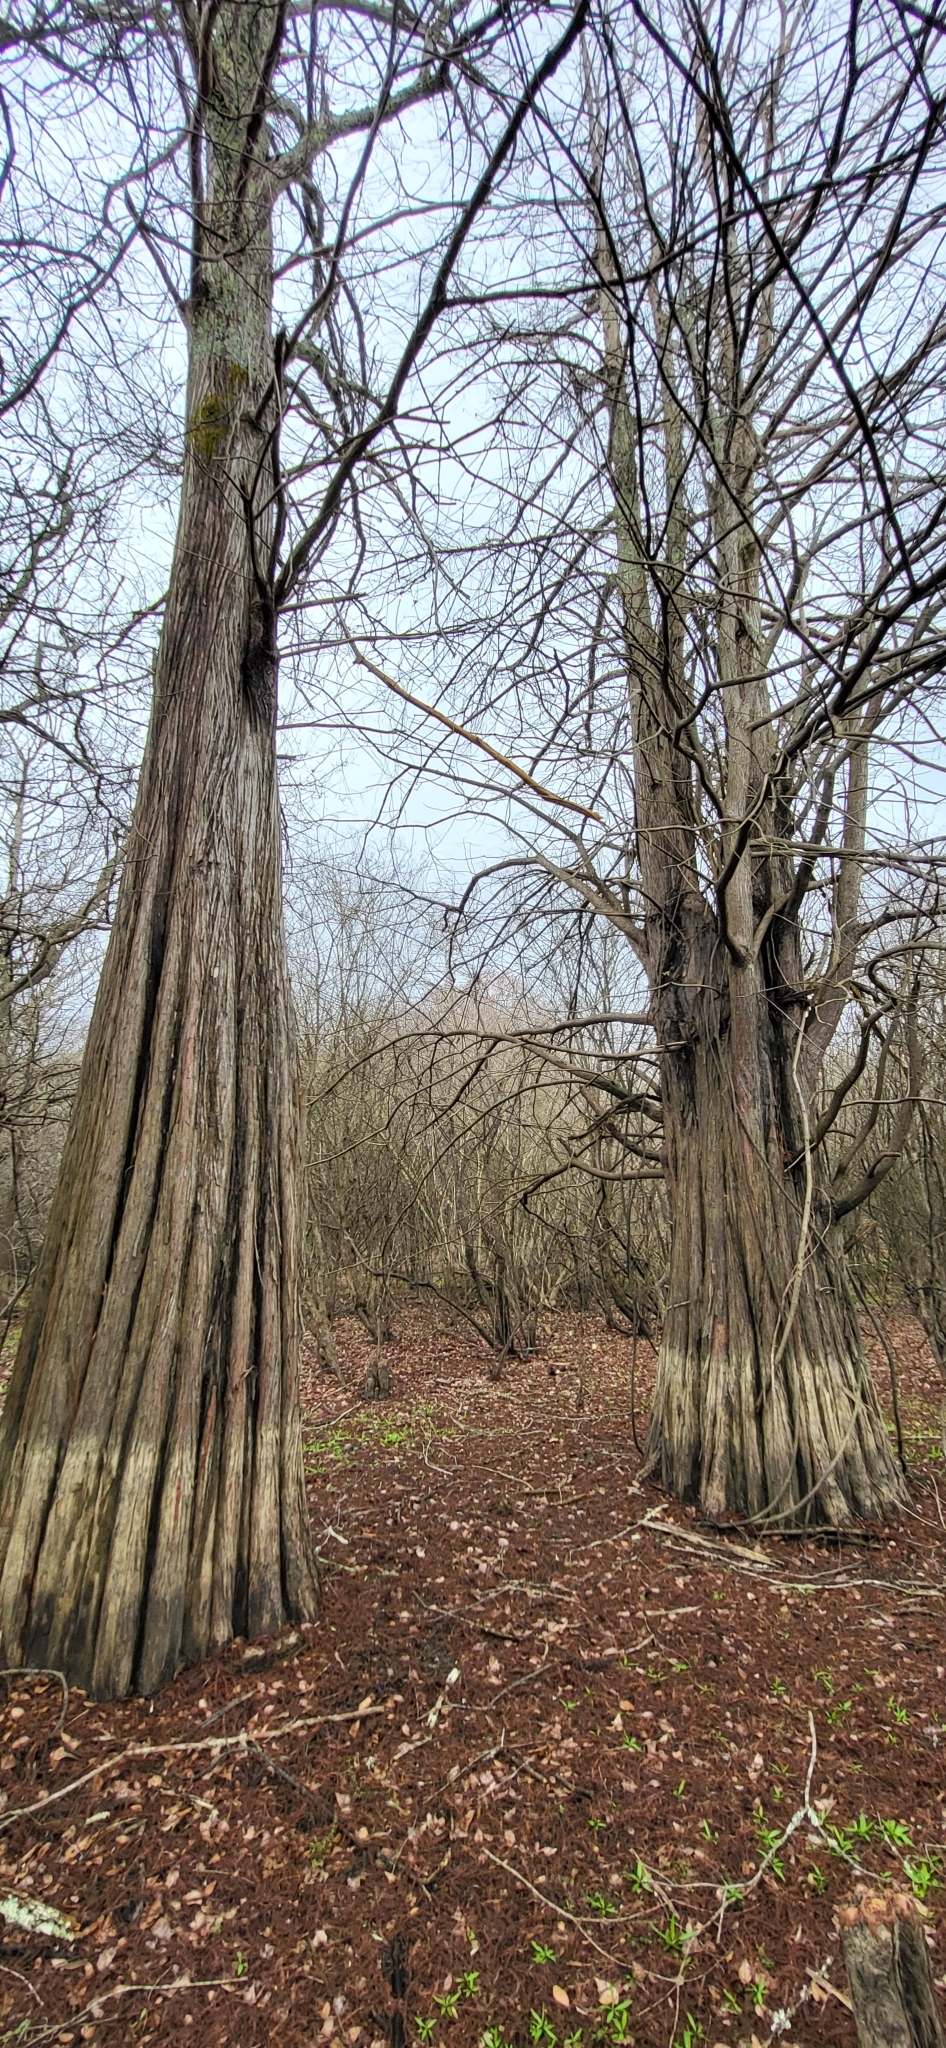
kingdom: Plantae
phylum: Tracheophyta
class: Pinopsida
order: Pinales
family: Cupressaceae
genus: Taxodium
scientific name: Taxodium distichum
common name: Bald cypress
